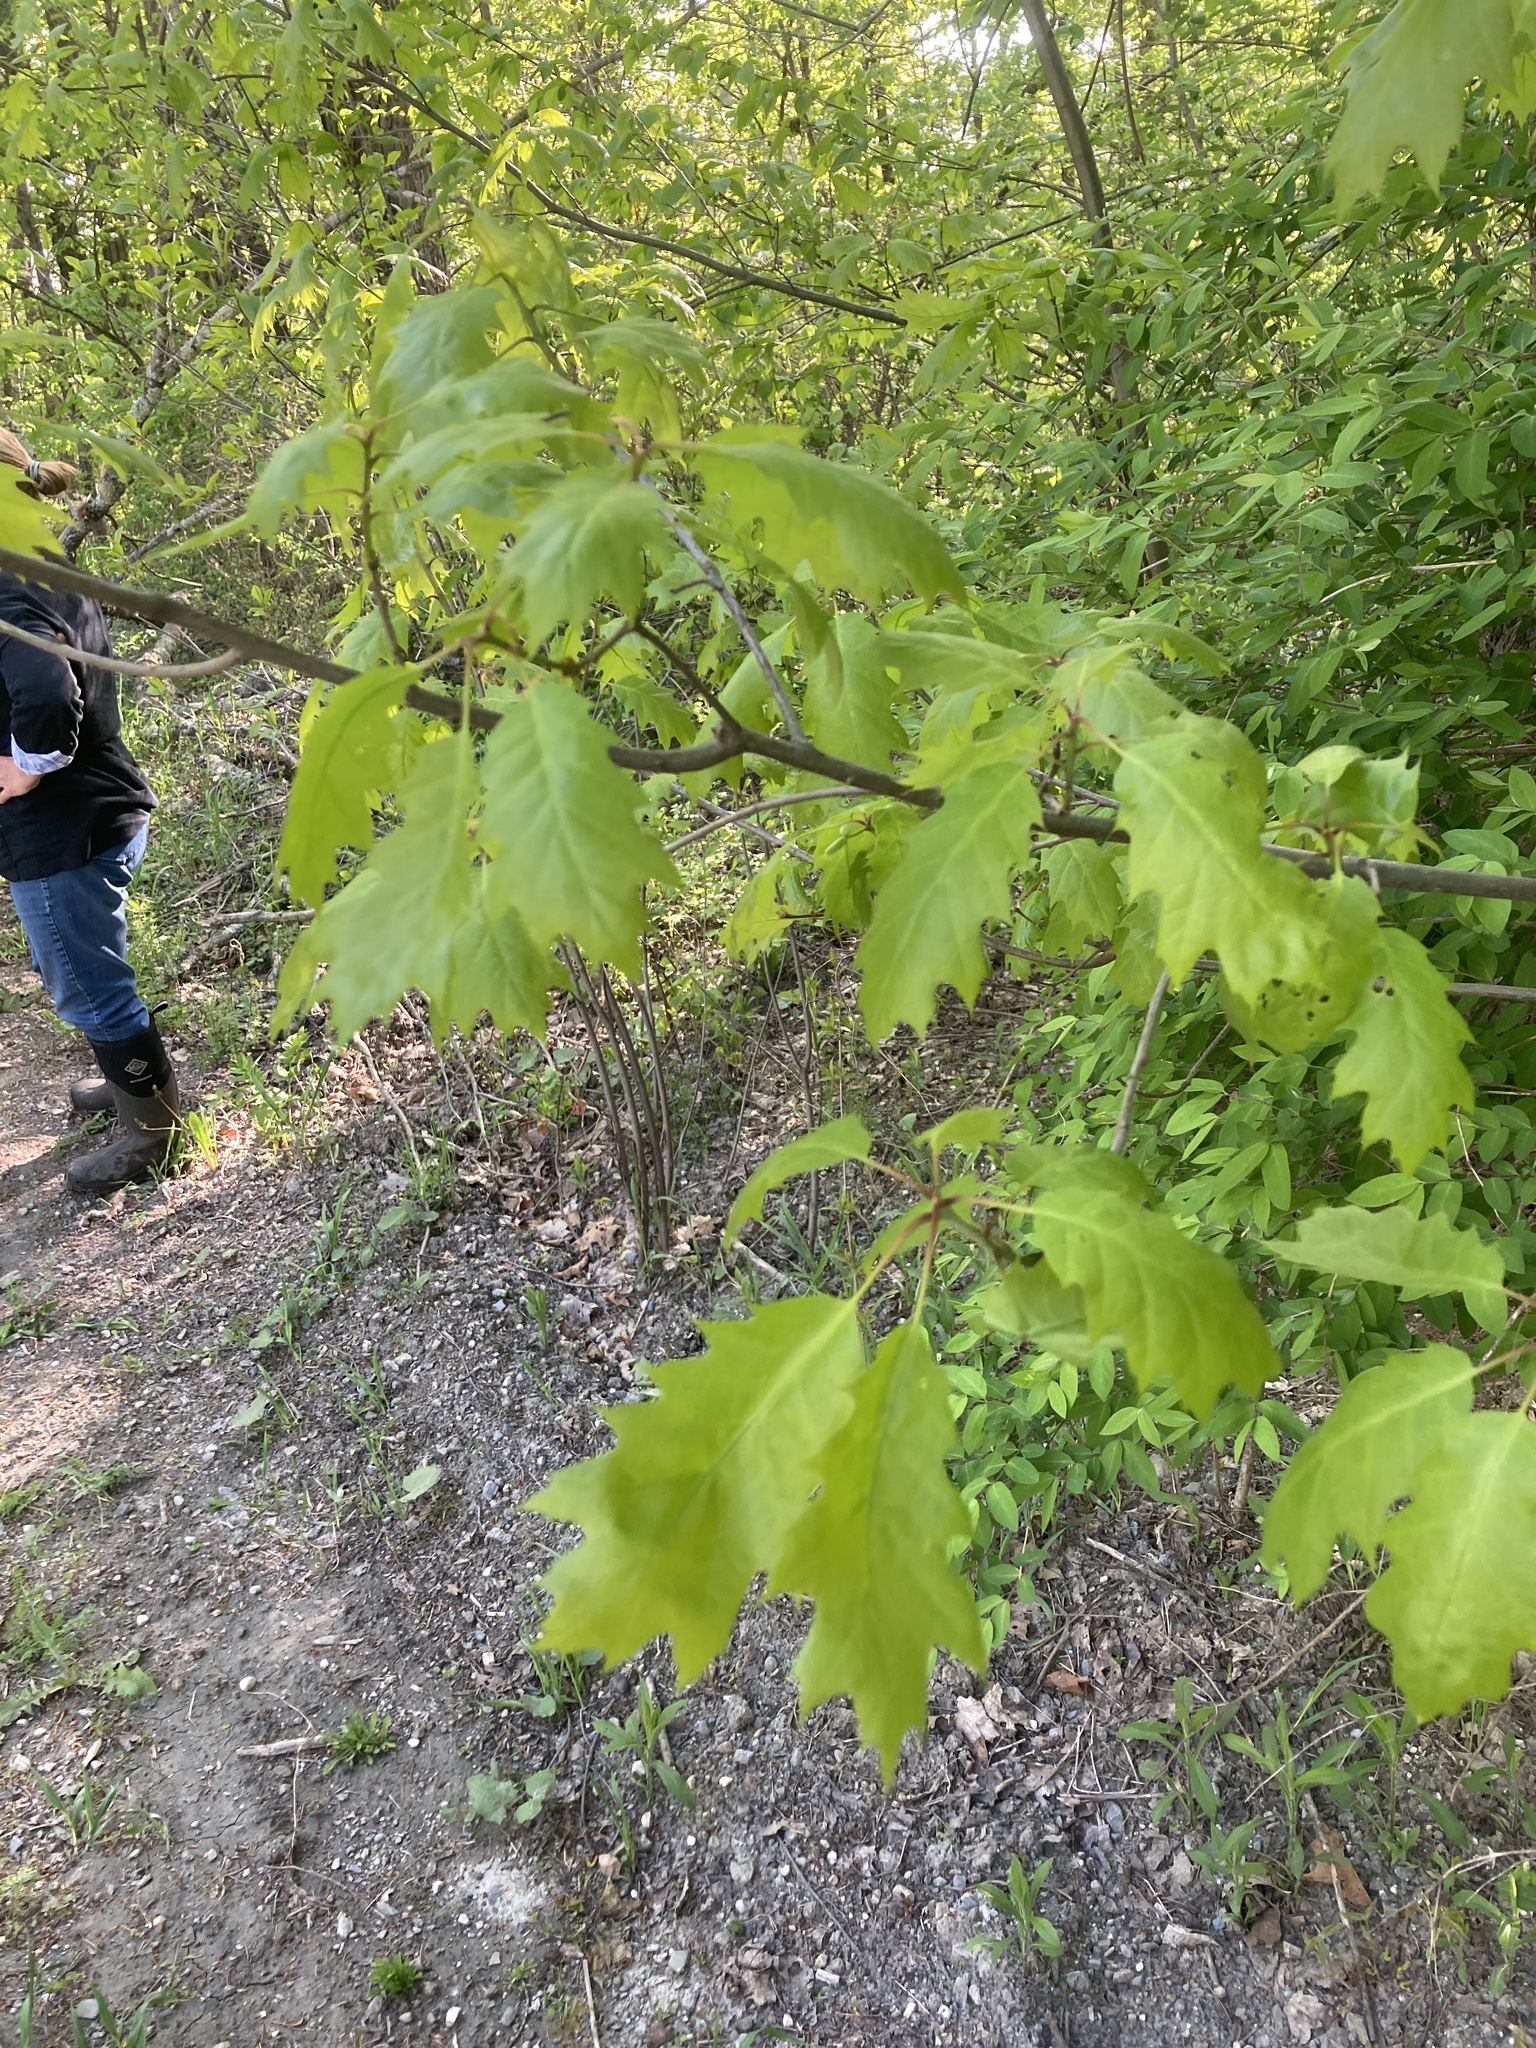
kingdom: Plantae
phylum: Tracheophyta
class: Magnoliopsida
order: Fagales
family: Fagaceae
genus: Quercus
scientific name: Quercus rubra
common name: Red oak
